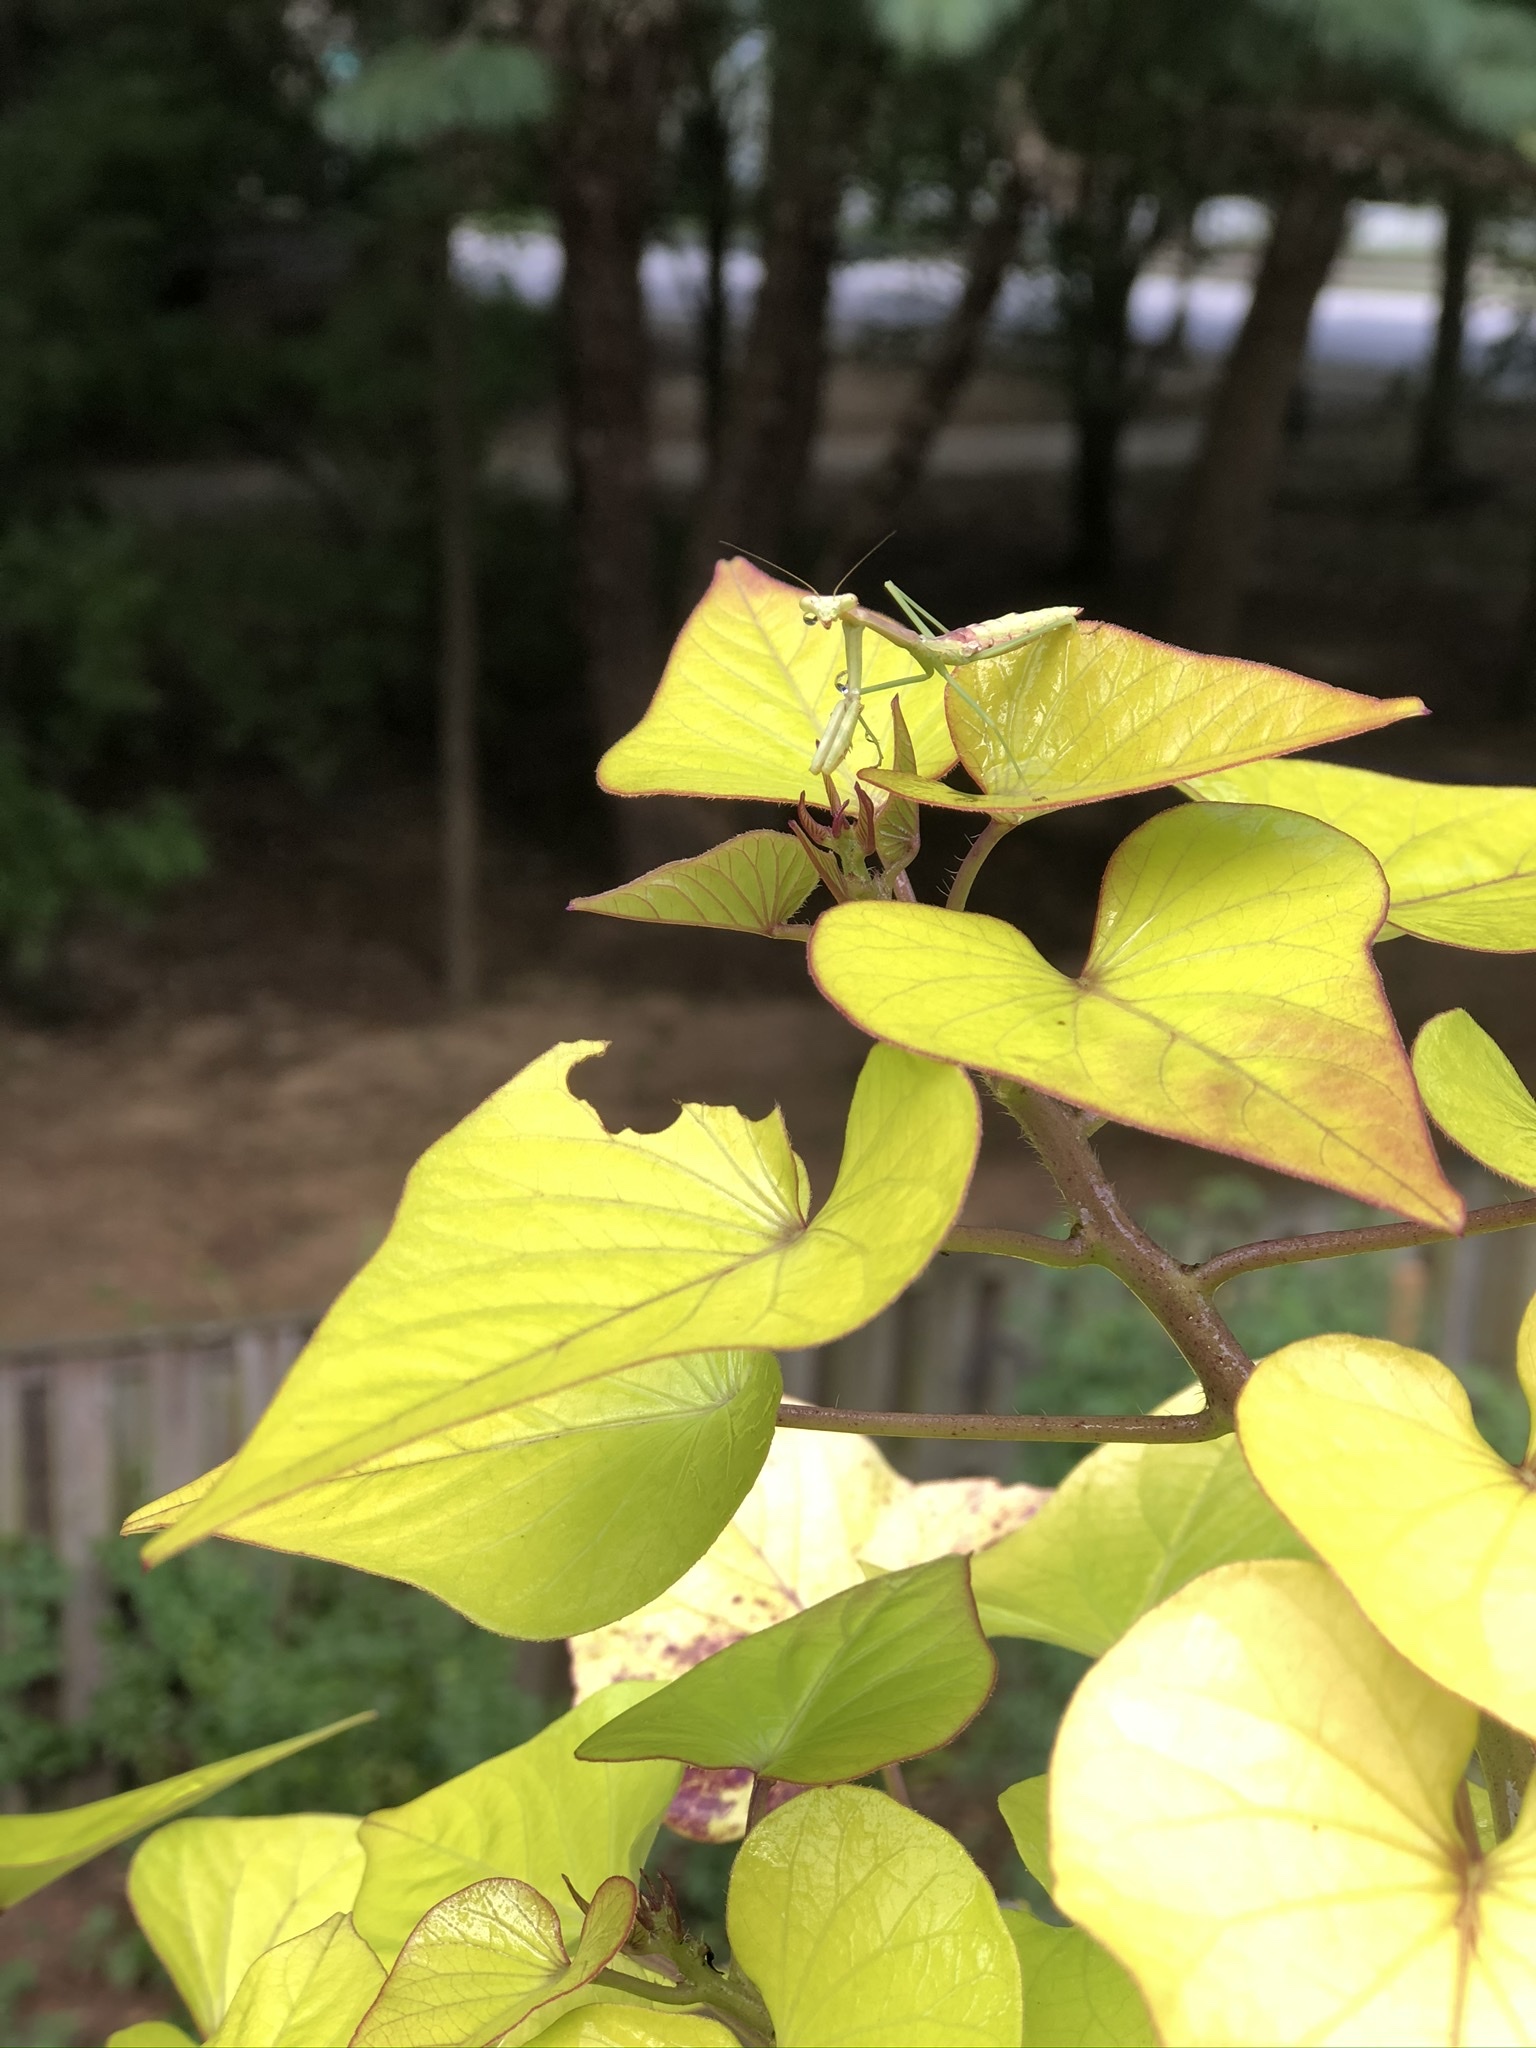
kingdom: Animalia
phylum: Arthropoda
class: Insecta
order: Mantodea
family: Mantidae
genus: Stagmomantis
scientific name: Stagmomantis carolina
